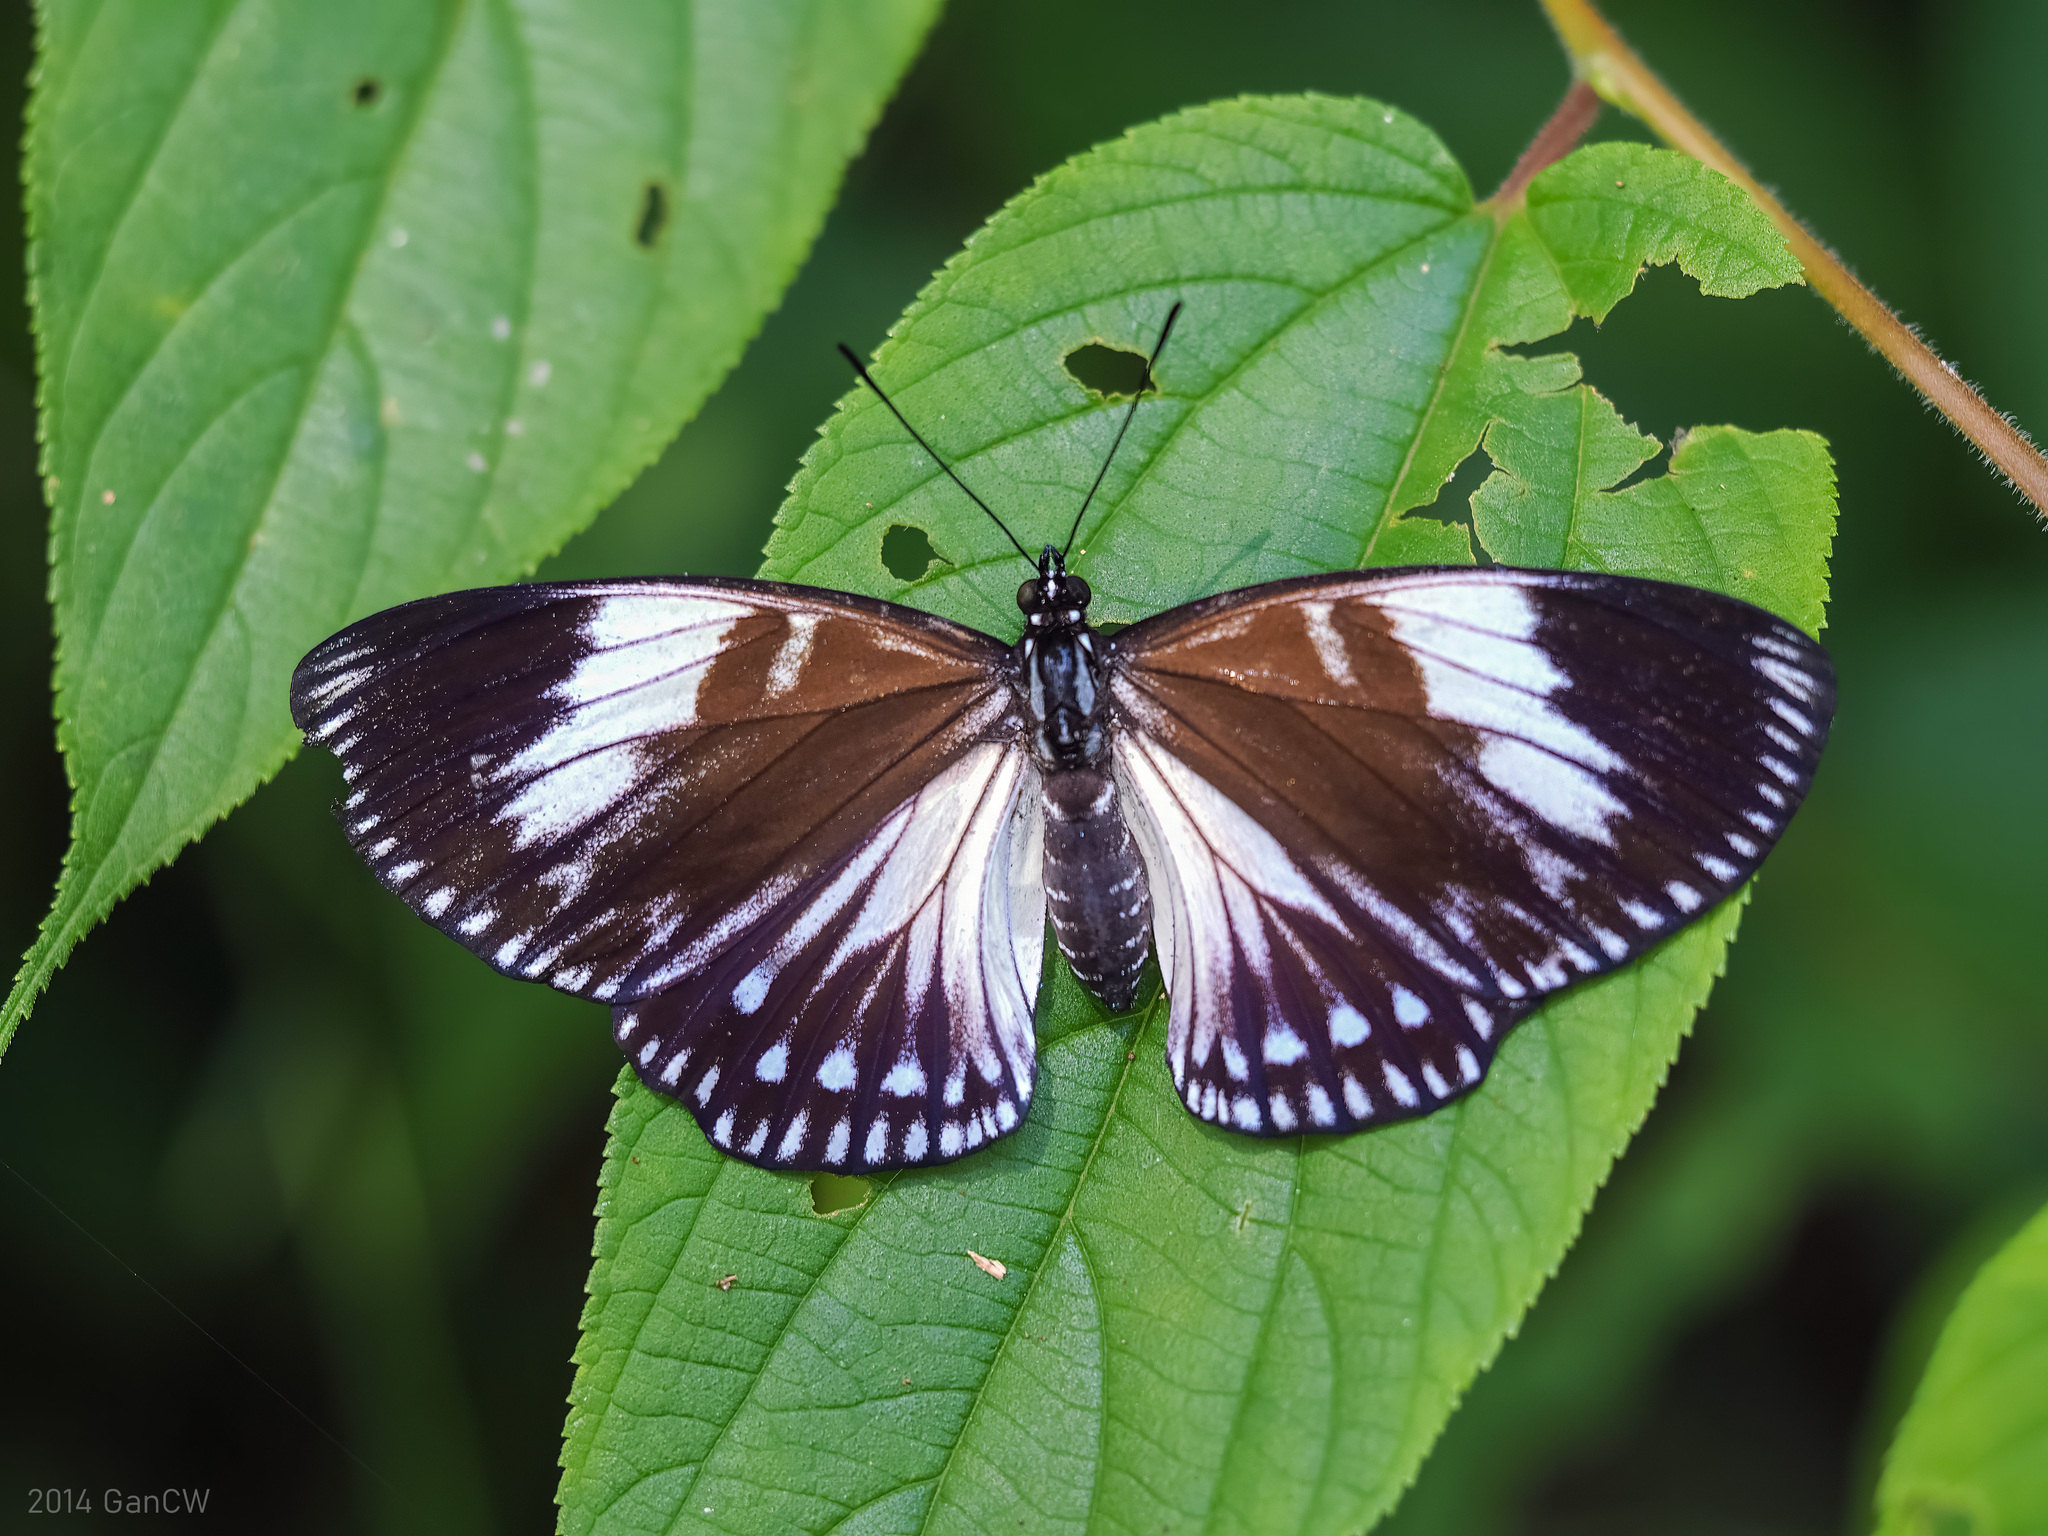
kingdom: Animalia
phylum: Arthropoda
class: Insecta
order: Lepidoptera
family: Nymphalidae
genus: Euripus
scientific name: Euripus nyctelius
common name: Courtesan
